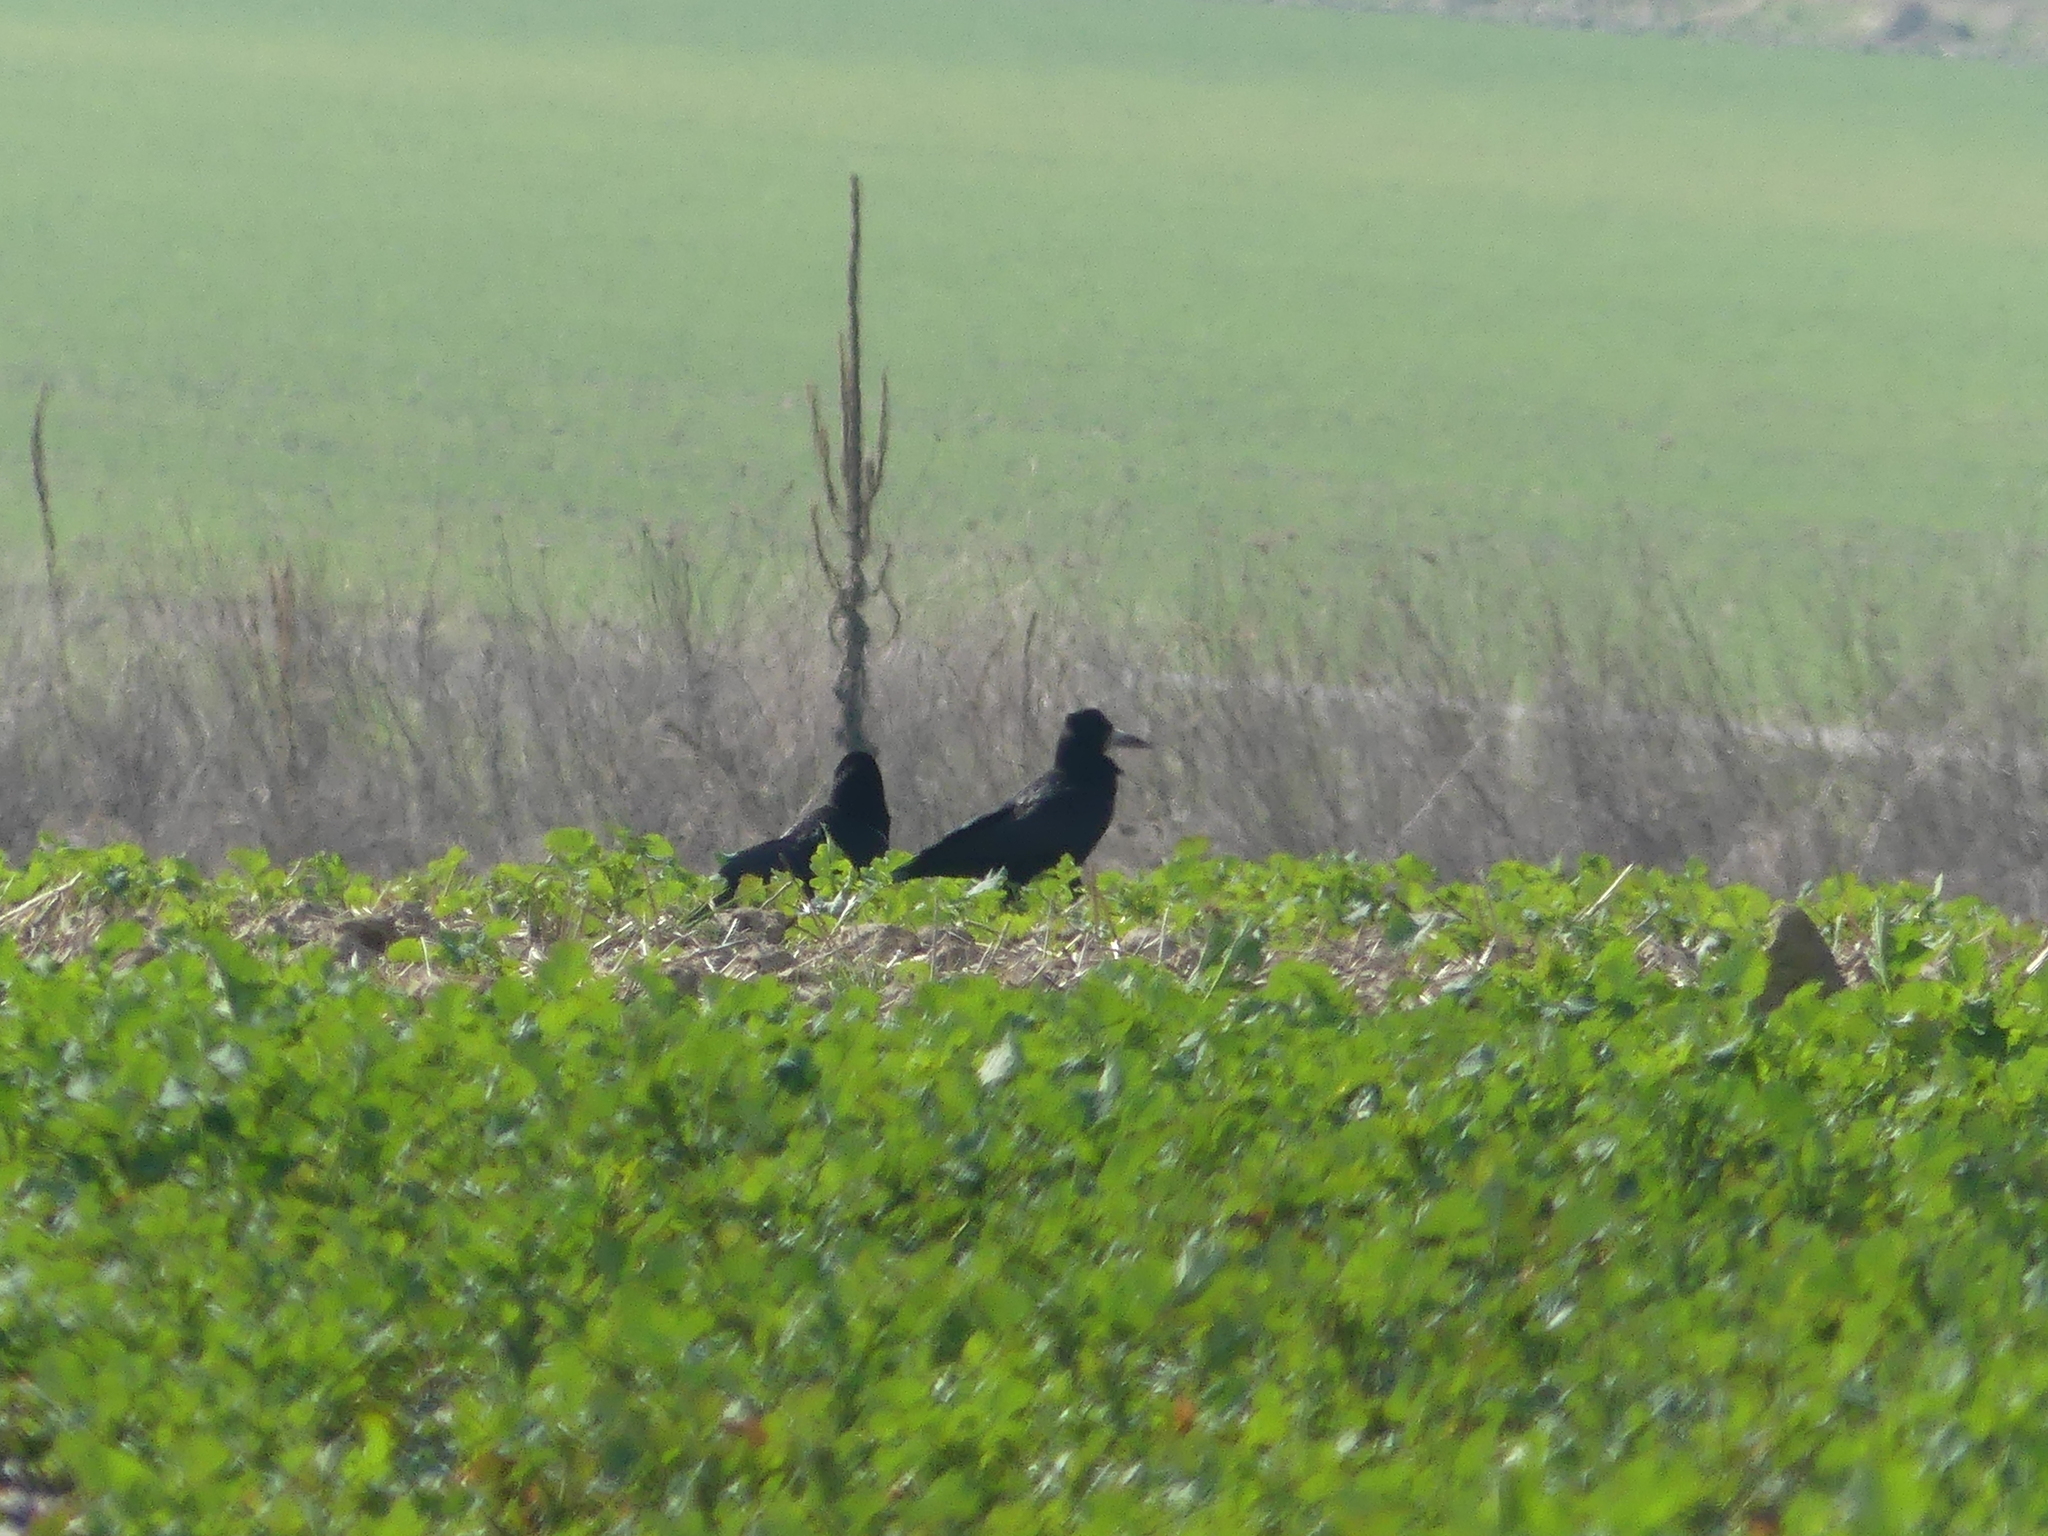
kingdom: Animalia
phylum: Chordata
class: Aves
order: Passeriformes
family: Corvidae
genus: Corvus
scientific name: Corvus frugilegus
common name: Rook
